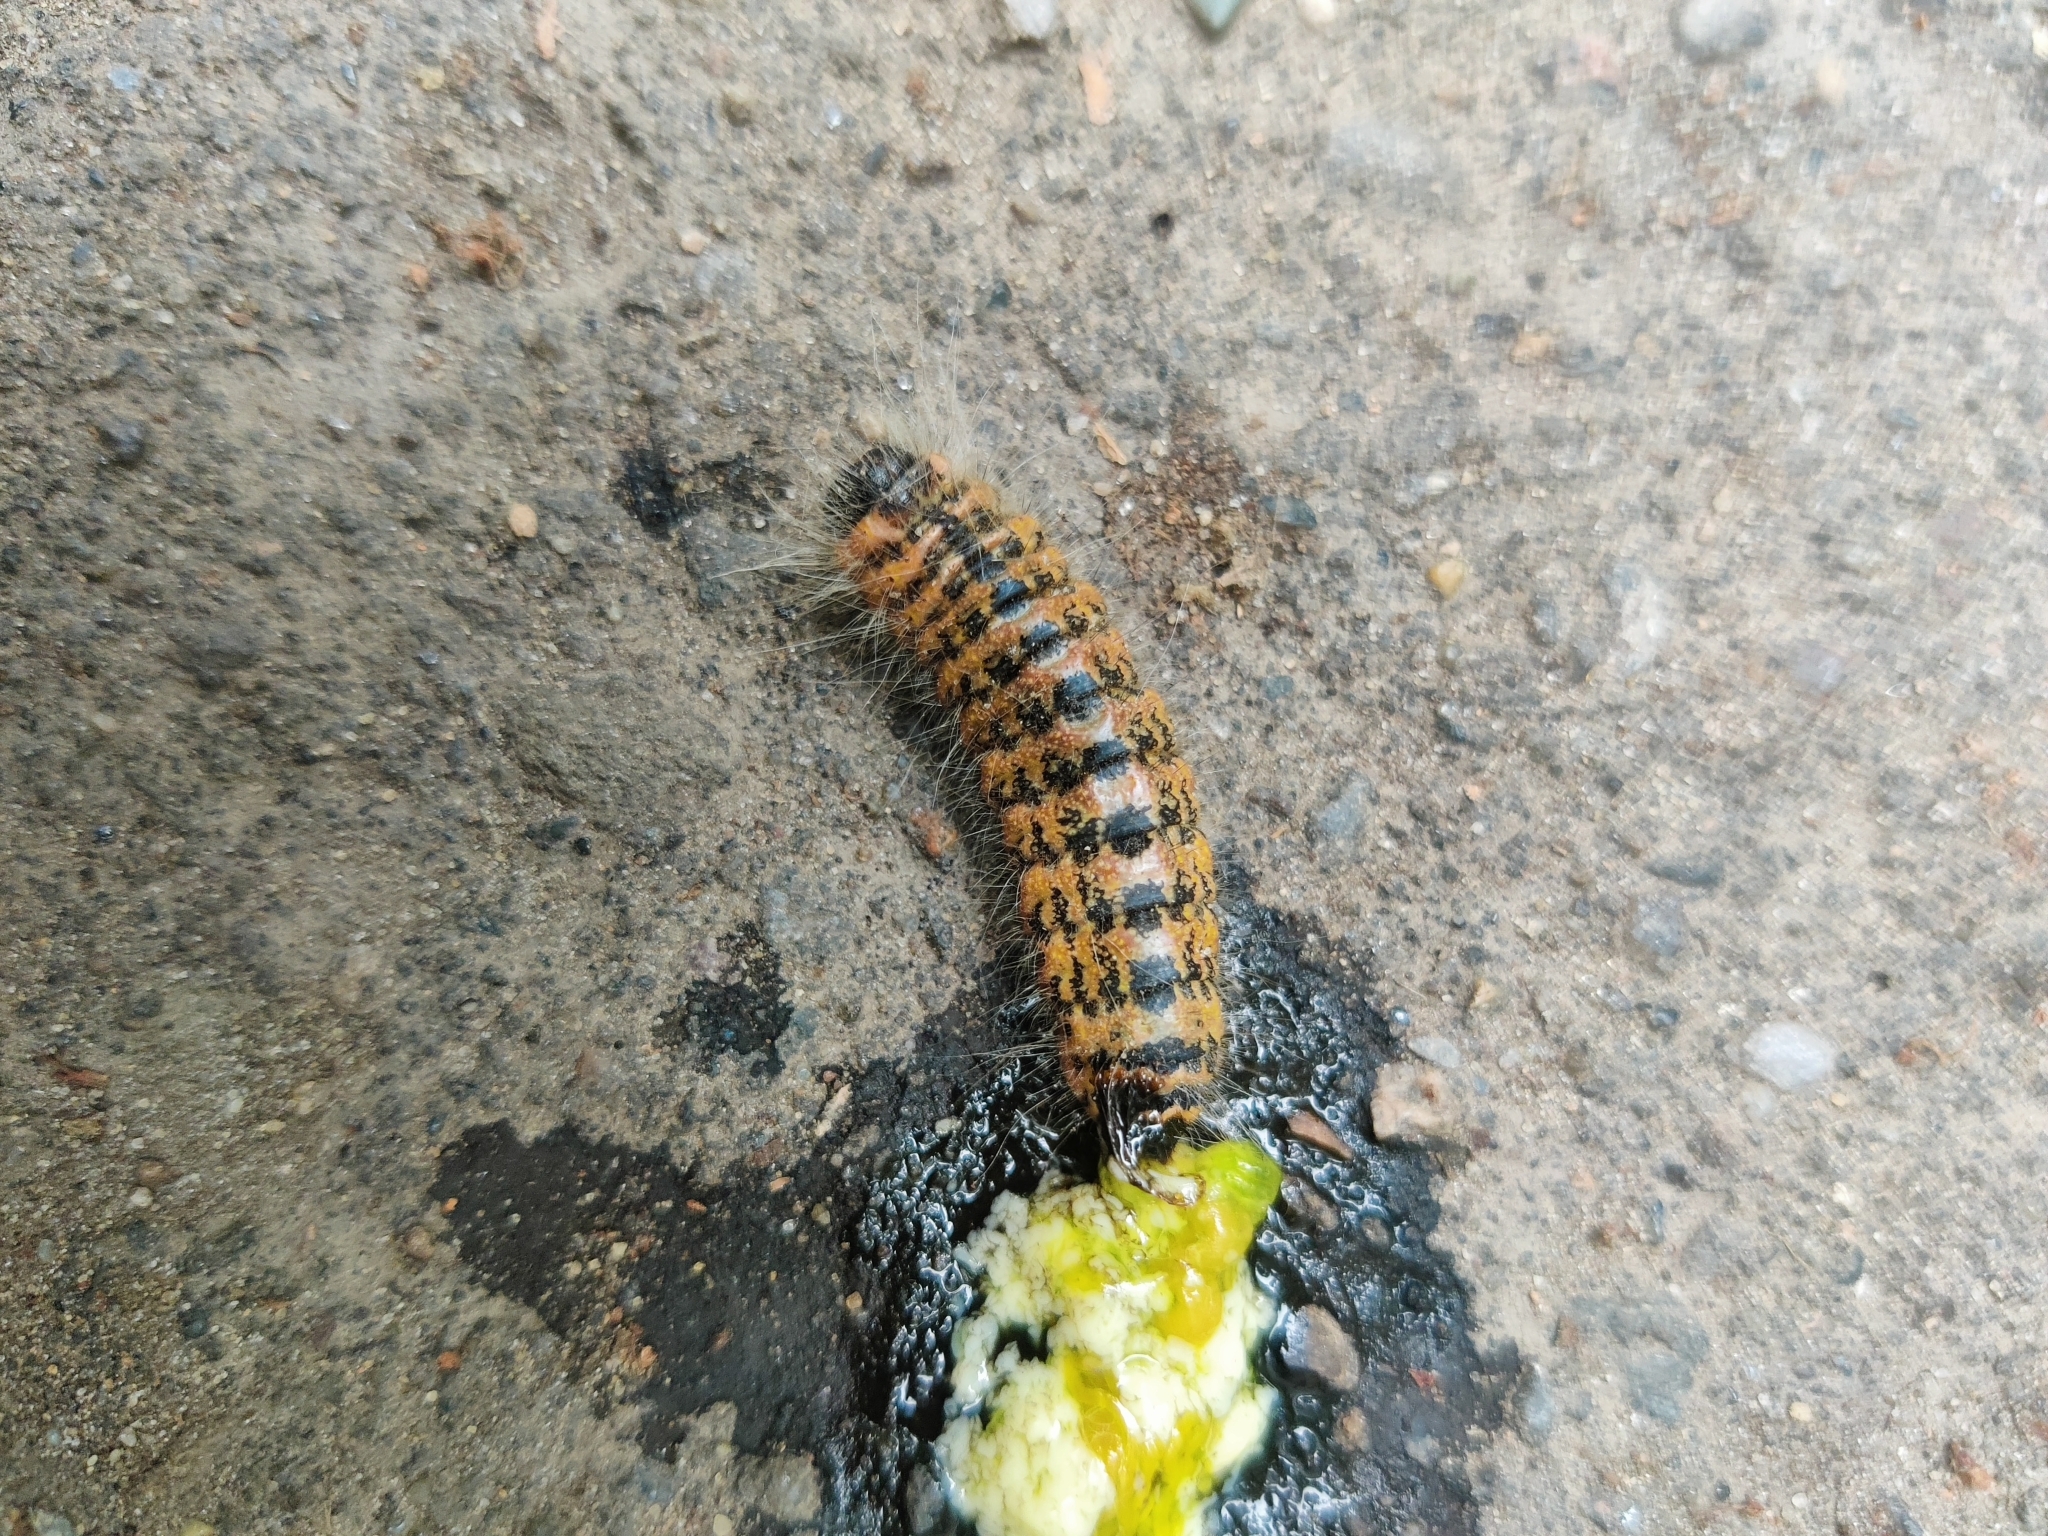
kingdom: Animalia
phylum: Arthropoda
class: Insecta
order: Lepidoptera
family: Notodontidae
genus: Phalera
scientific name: Phalera bucephala
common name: Buff-tip
